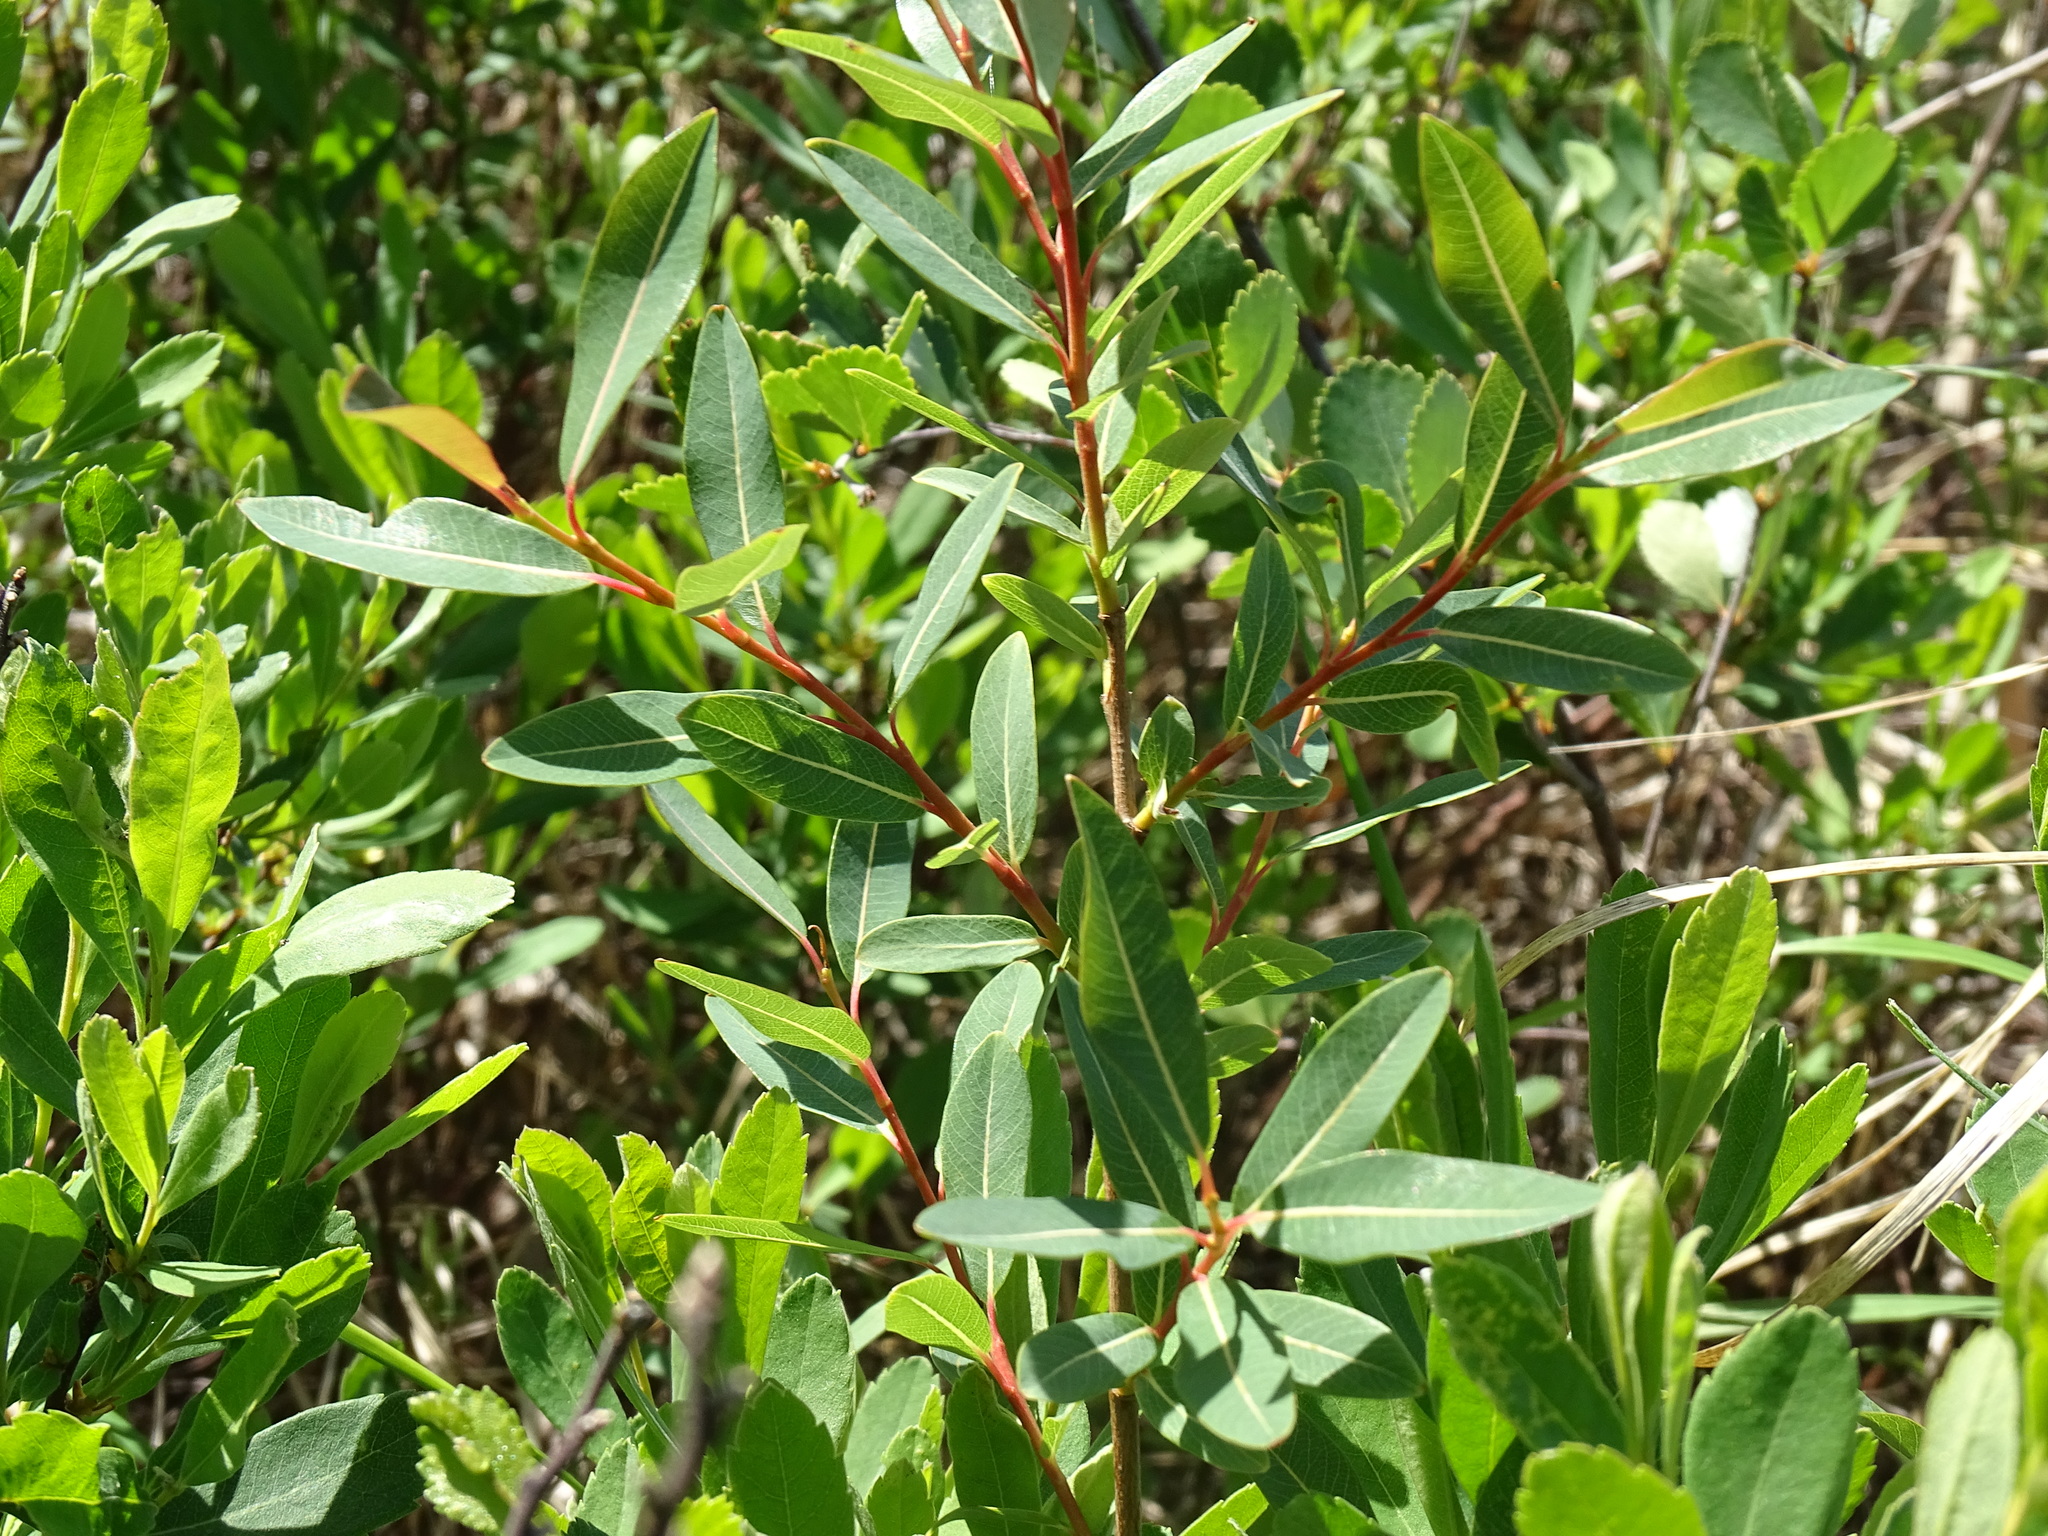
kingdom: Plantae
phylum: Tracheophyta
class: Magnoliopsida
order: Malpighiales
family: Salicaceae
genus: Salix
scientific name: Salix pedicellaris
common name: Bog willow
